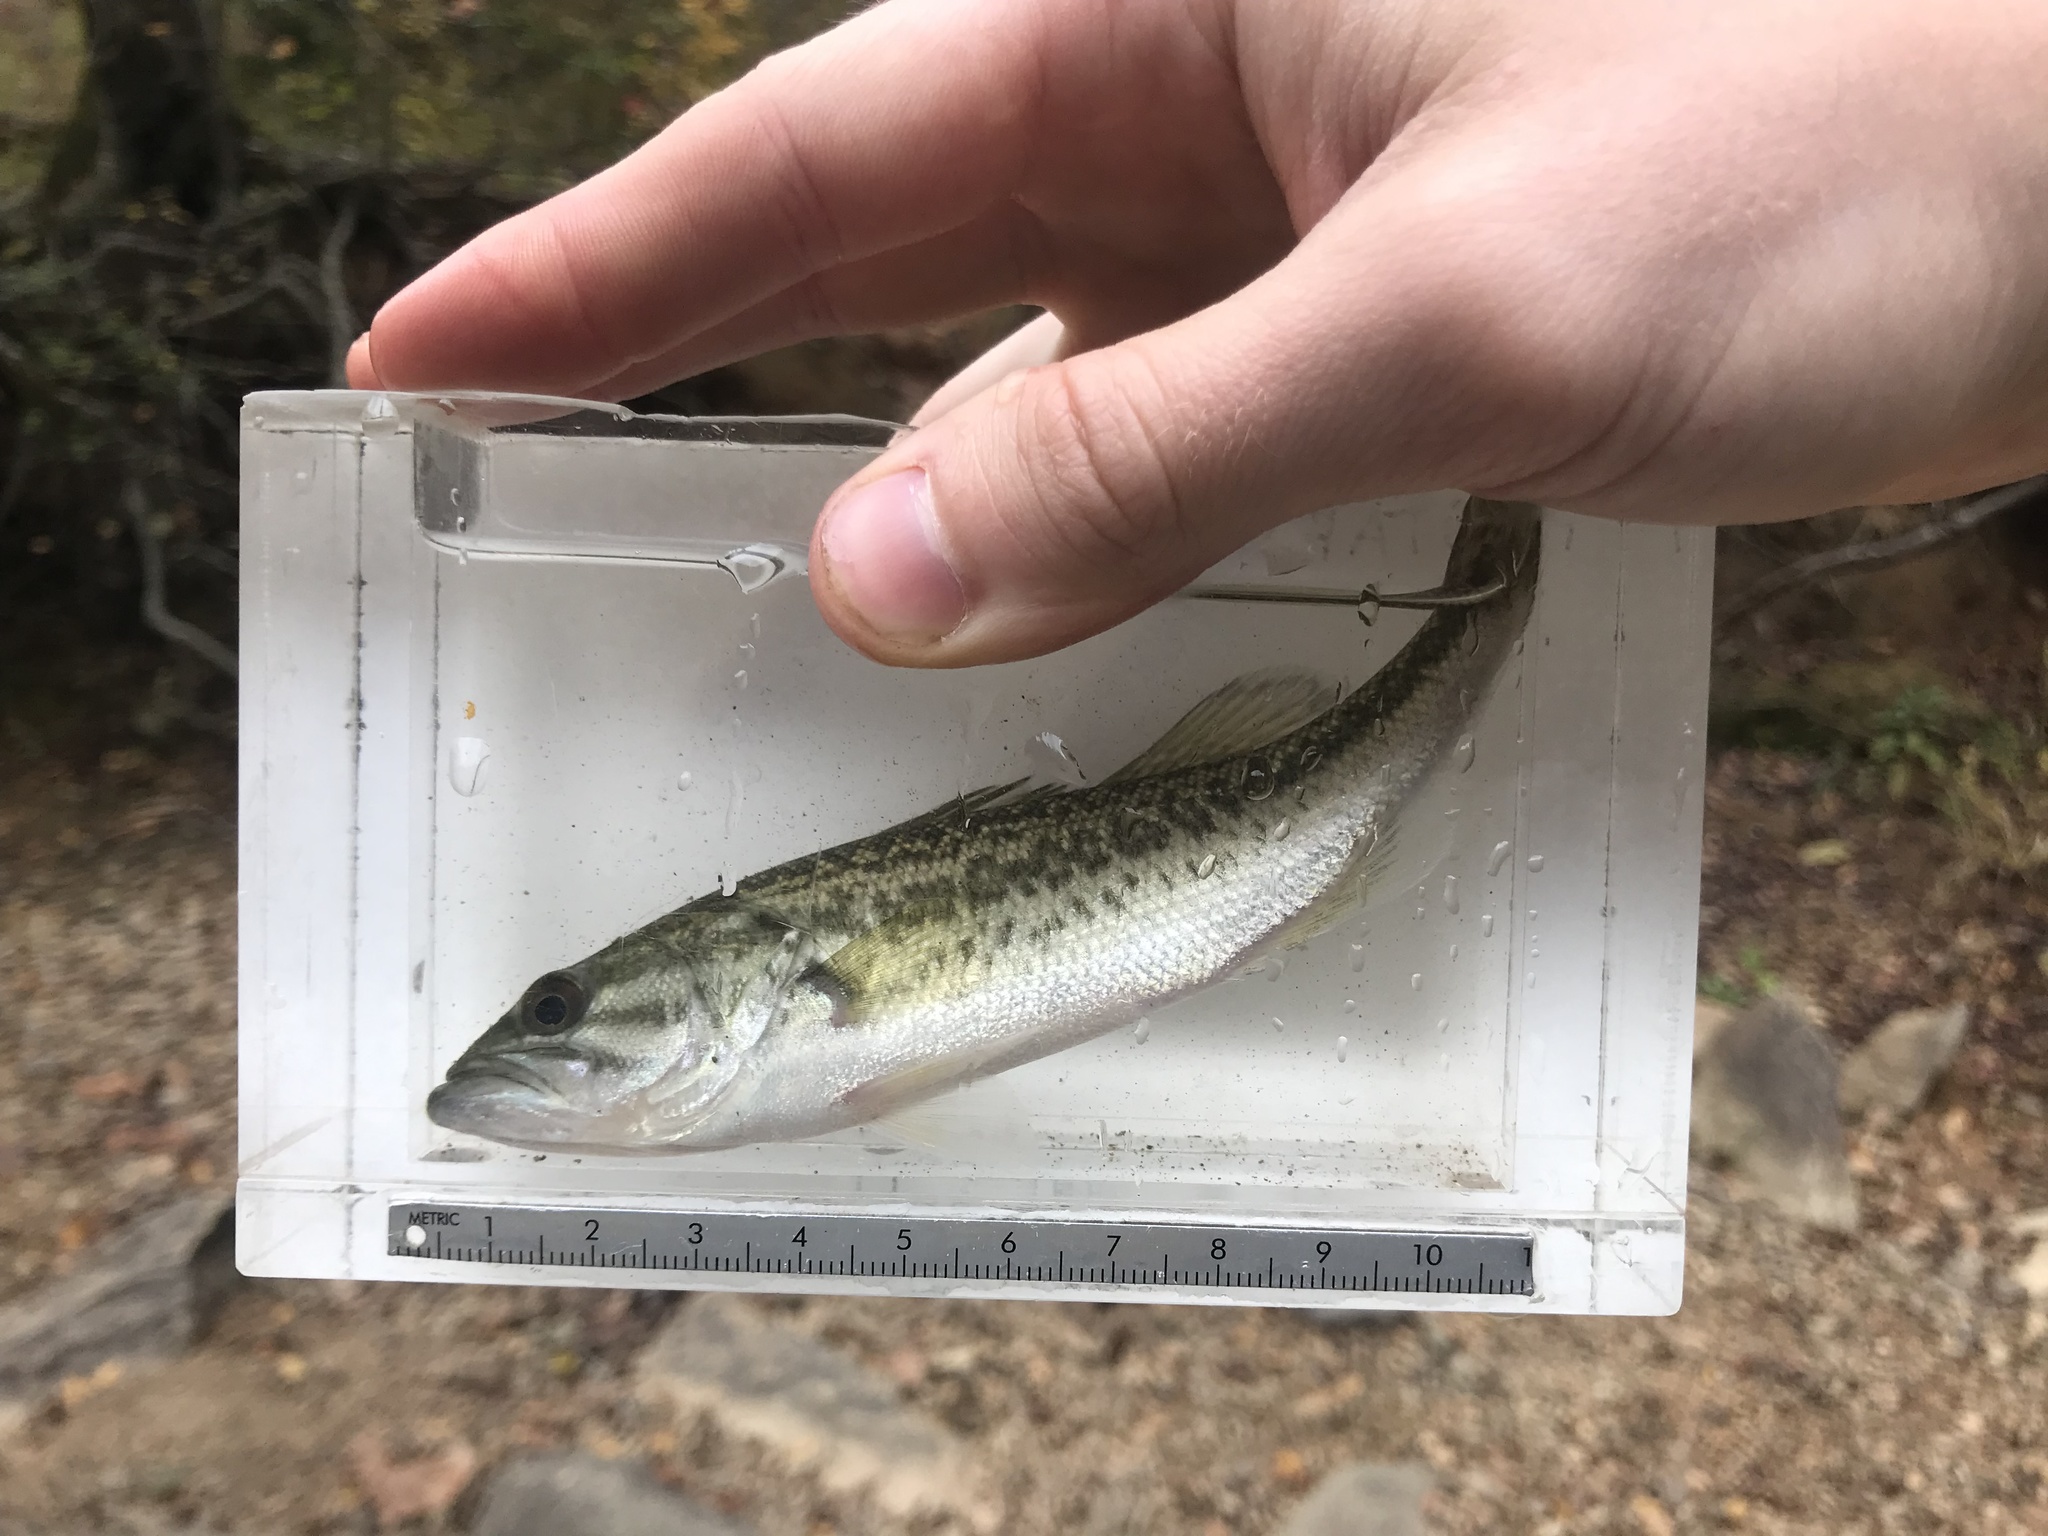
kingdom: Animalia
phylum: Chordata
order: Perciformes
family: Centrarchidae
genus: Micropterus
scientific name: Micropterus salmoides
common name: Largemouth bass
